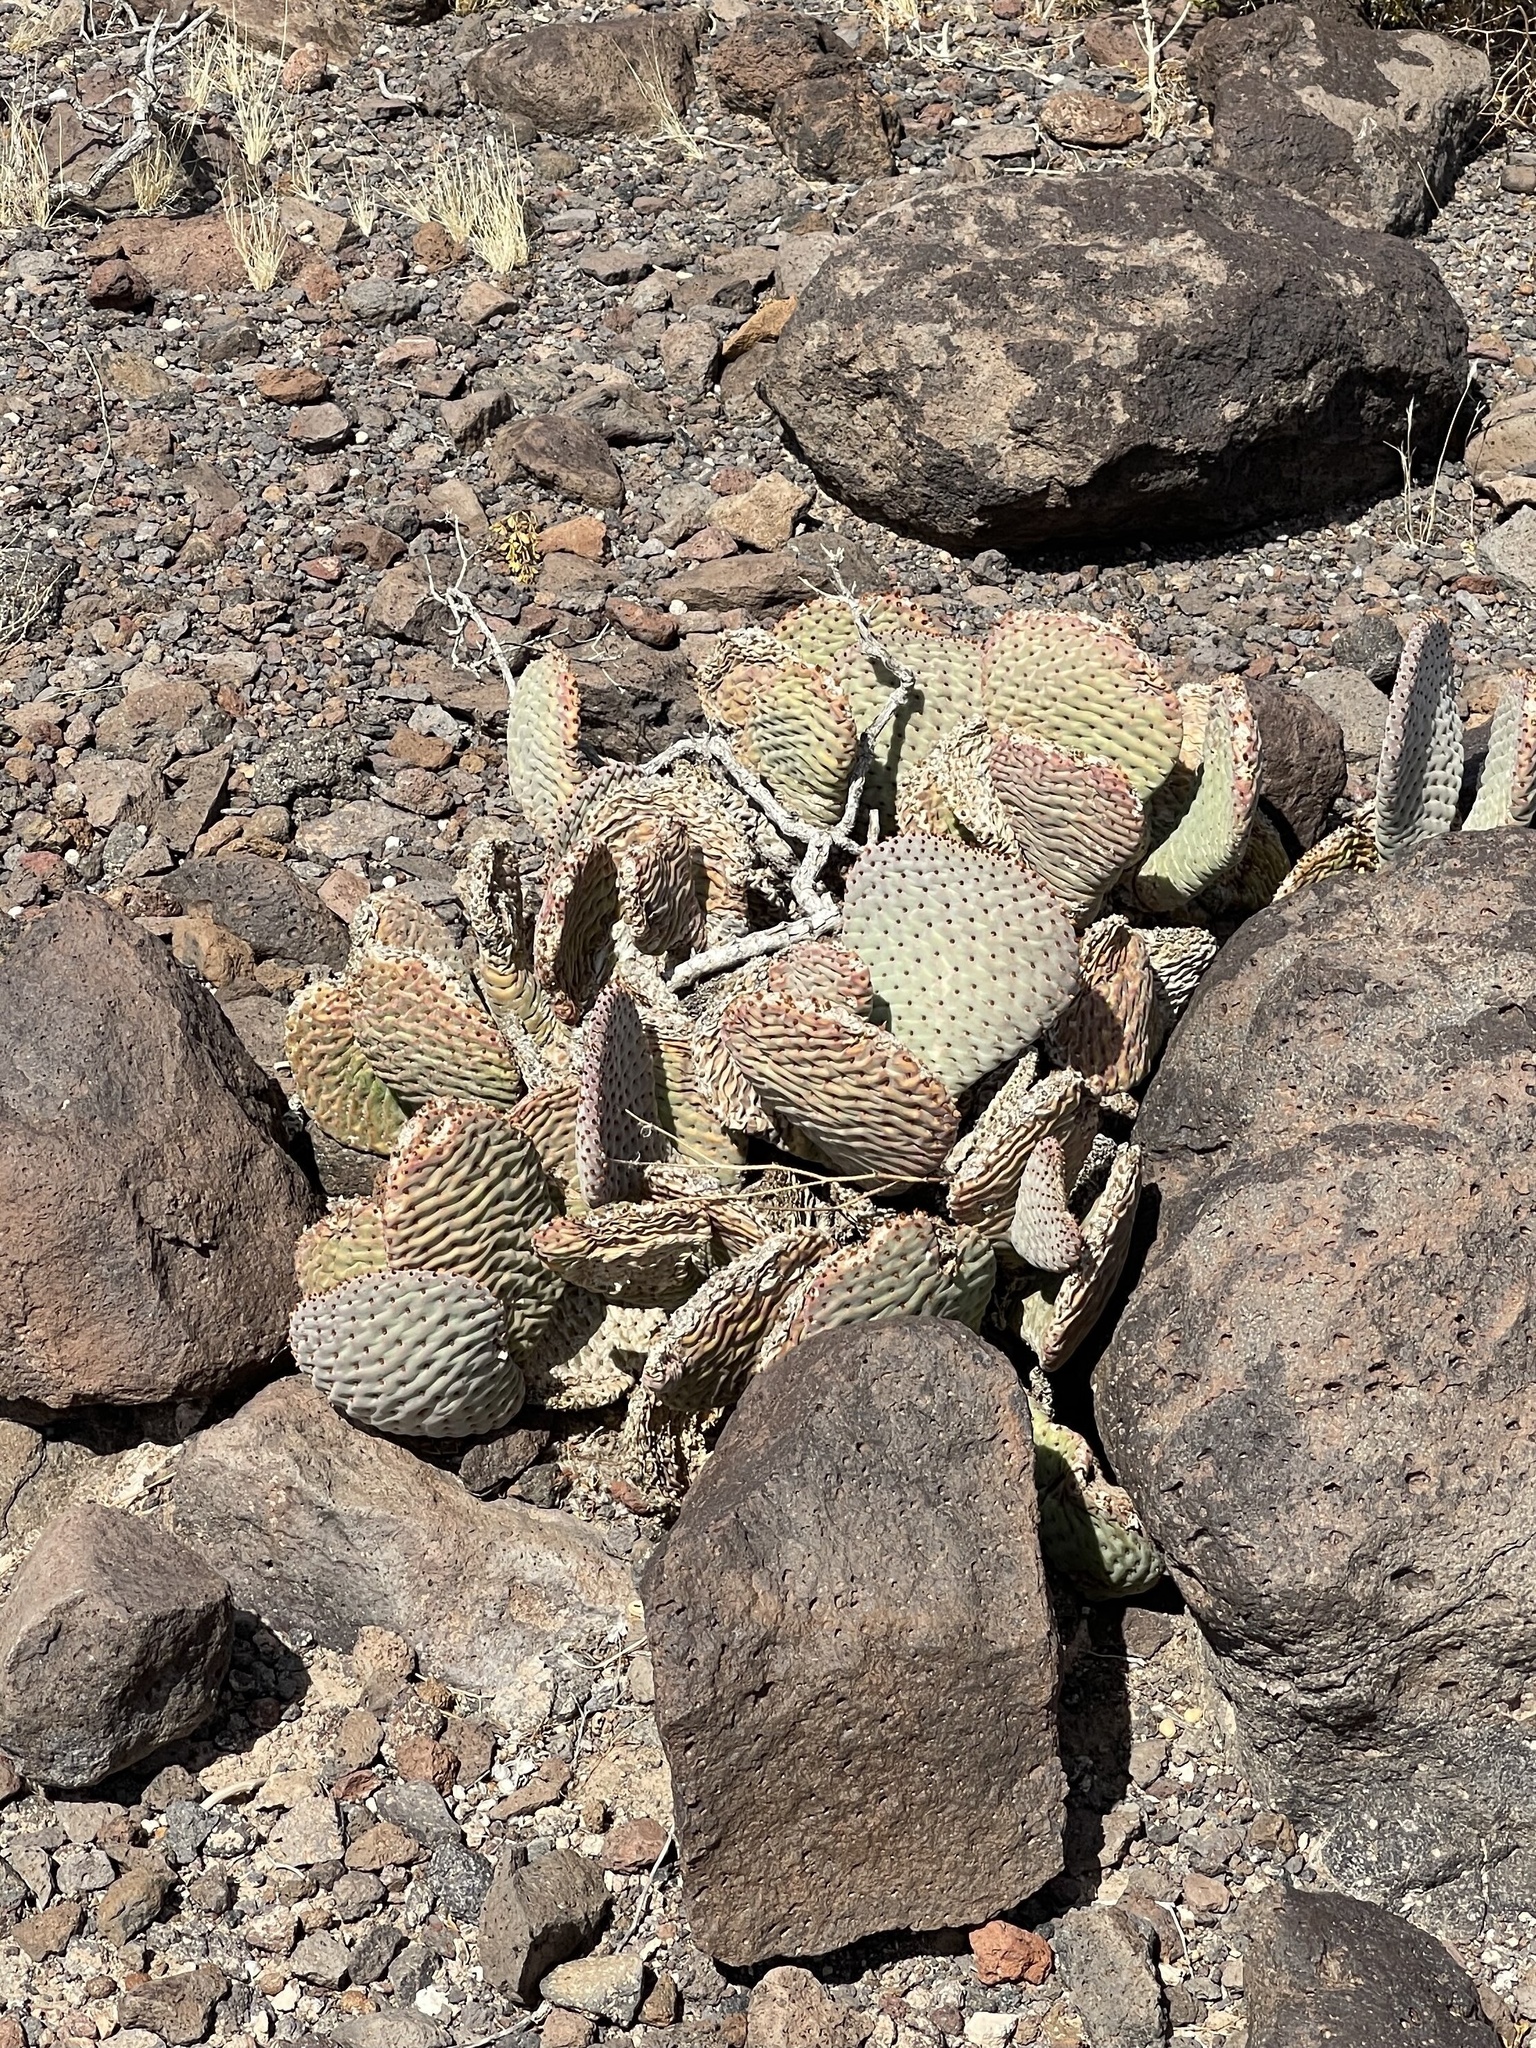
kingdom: Plantae
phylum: Tracheophyta
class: Magnoliopsida
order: Caryophyllales
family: Cactaceae
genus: Opuntia
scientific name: Opuntia basilaris
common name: Beavertail prickly-pear
